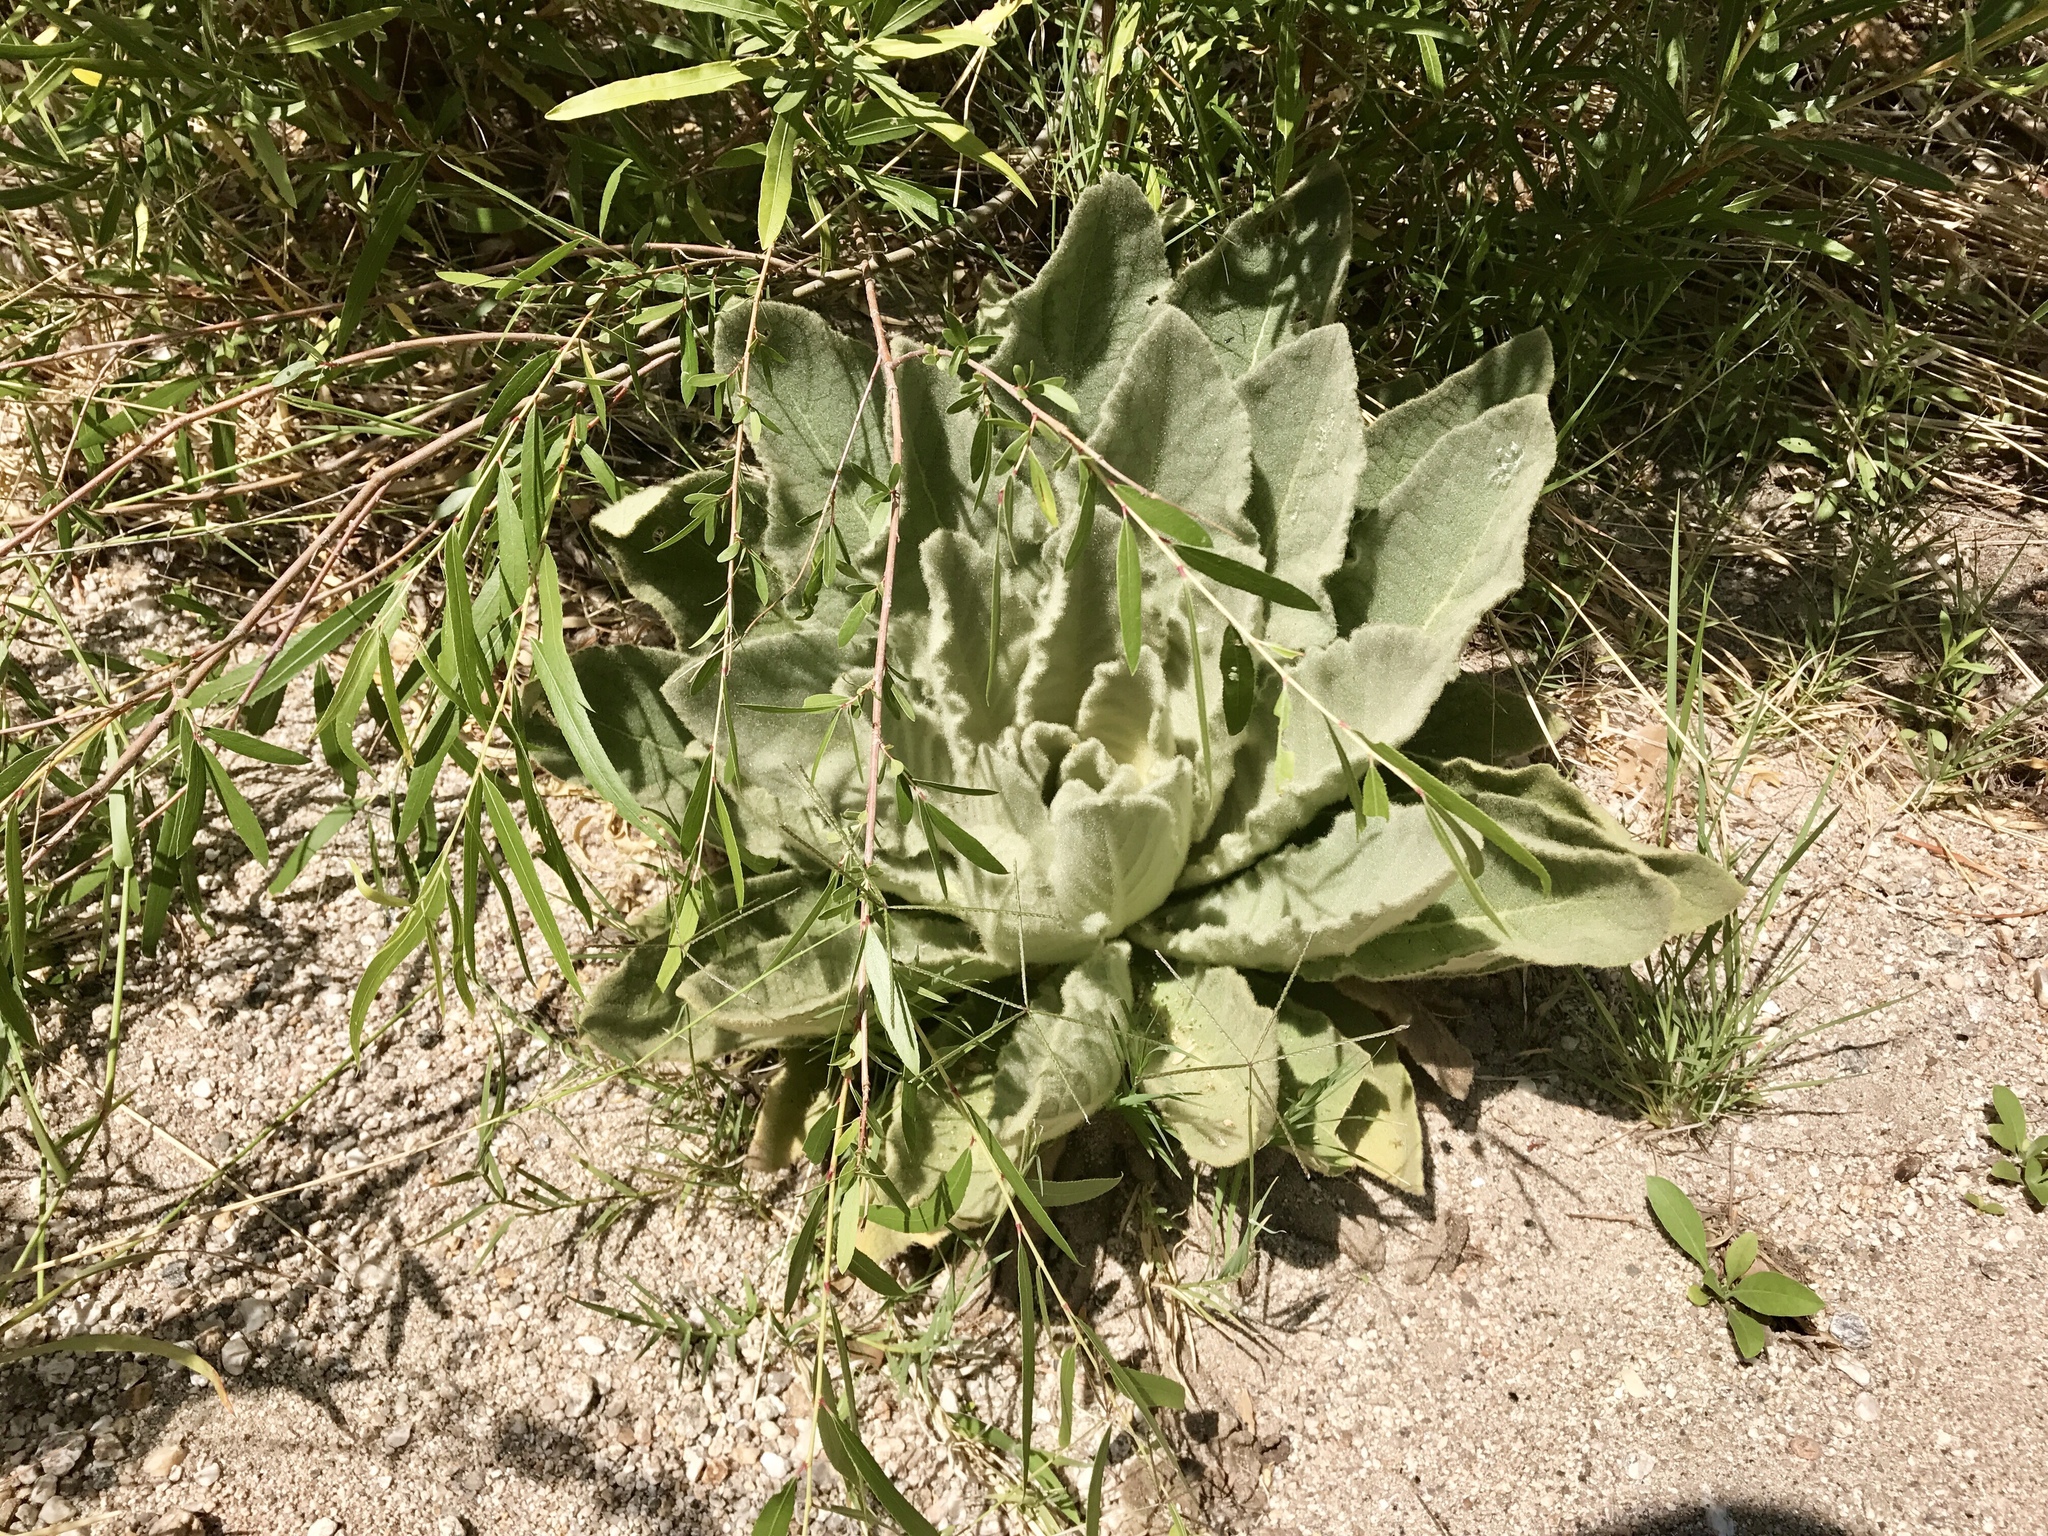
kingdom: Plantae
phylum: Tracheophyta
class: Magnoliopsida
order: Lamiales
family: Scrophulariaceae
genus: Verbascum
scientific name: Verbascum thapsus
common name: Common mullein
